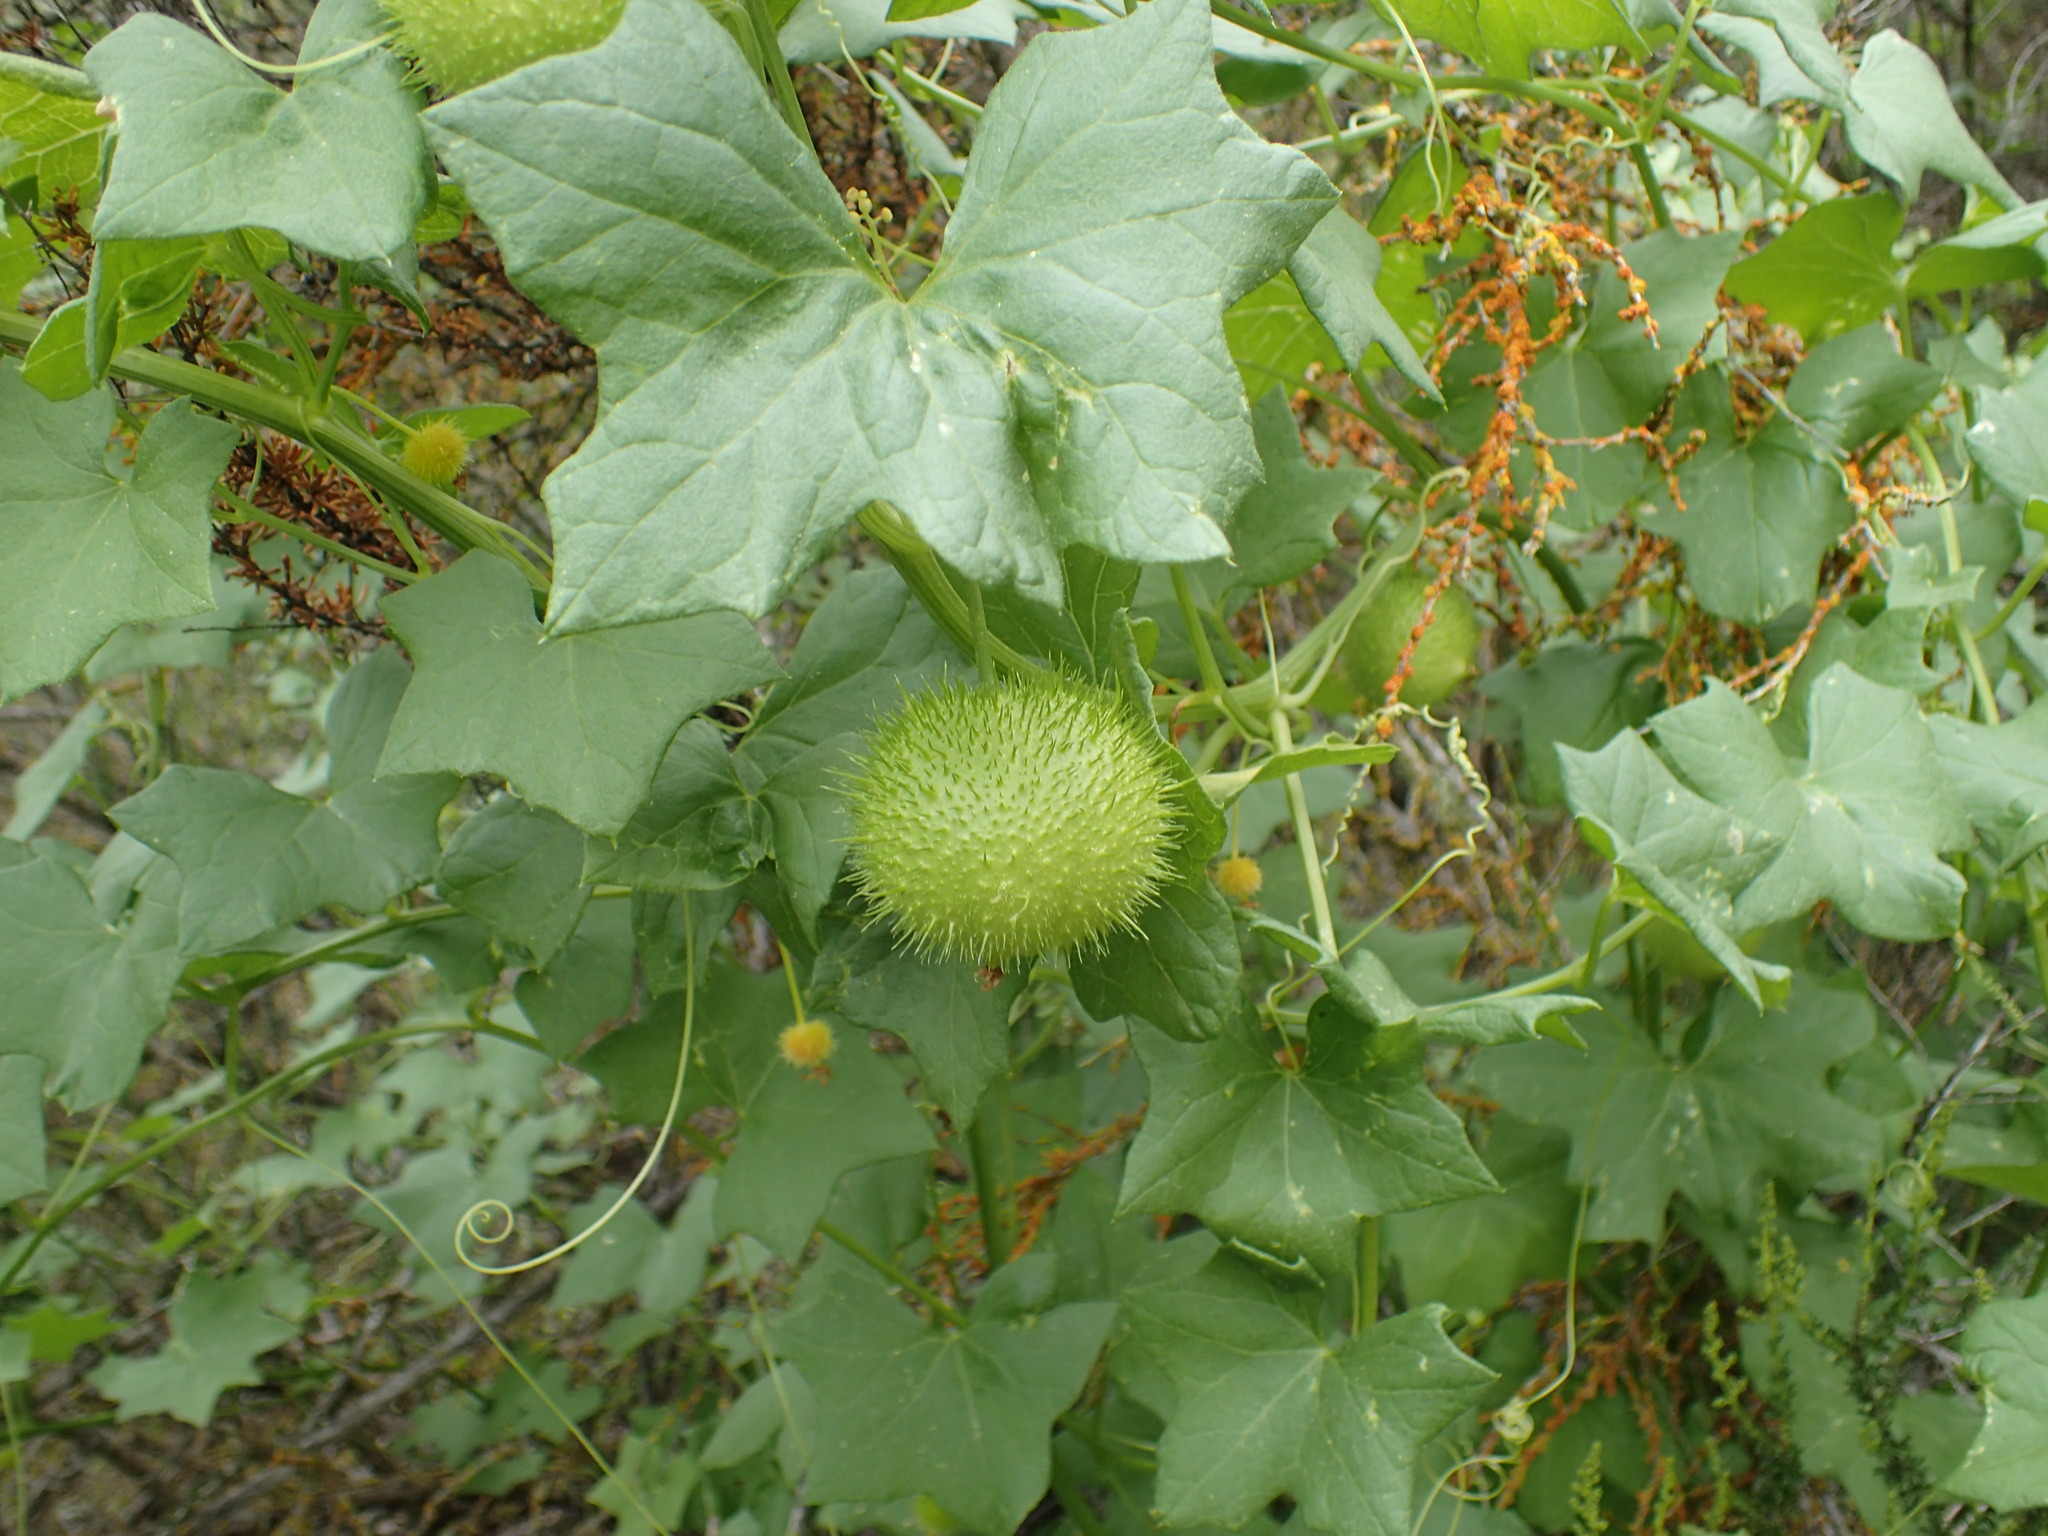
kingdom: Plantae
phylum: Tracheophyta
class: Magnoliopsida
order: Cucurbitales
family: Cucurbitaceae
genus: Marah
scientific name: Marah fabacea
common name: California manroot
